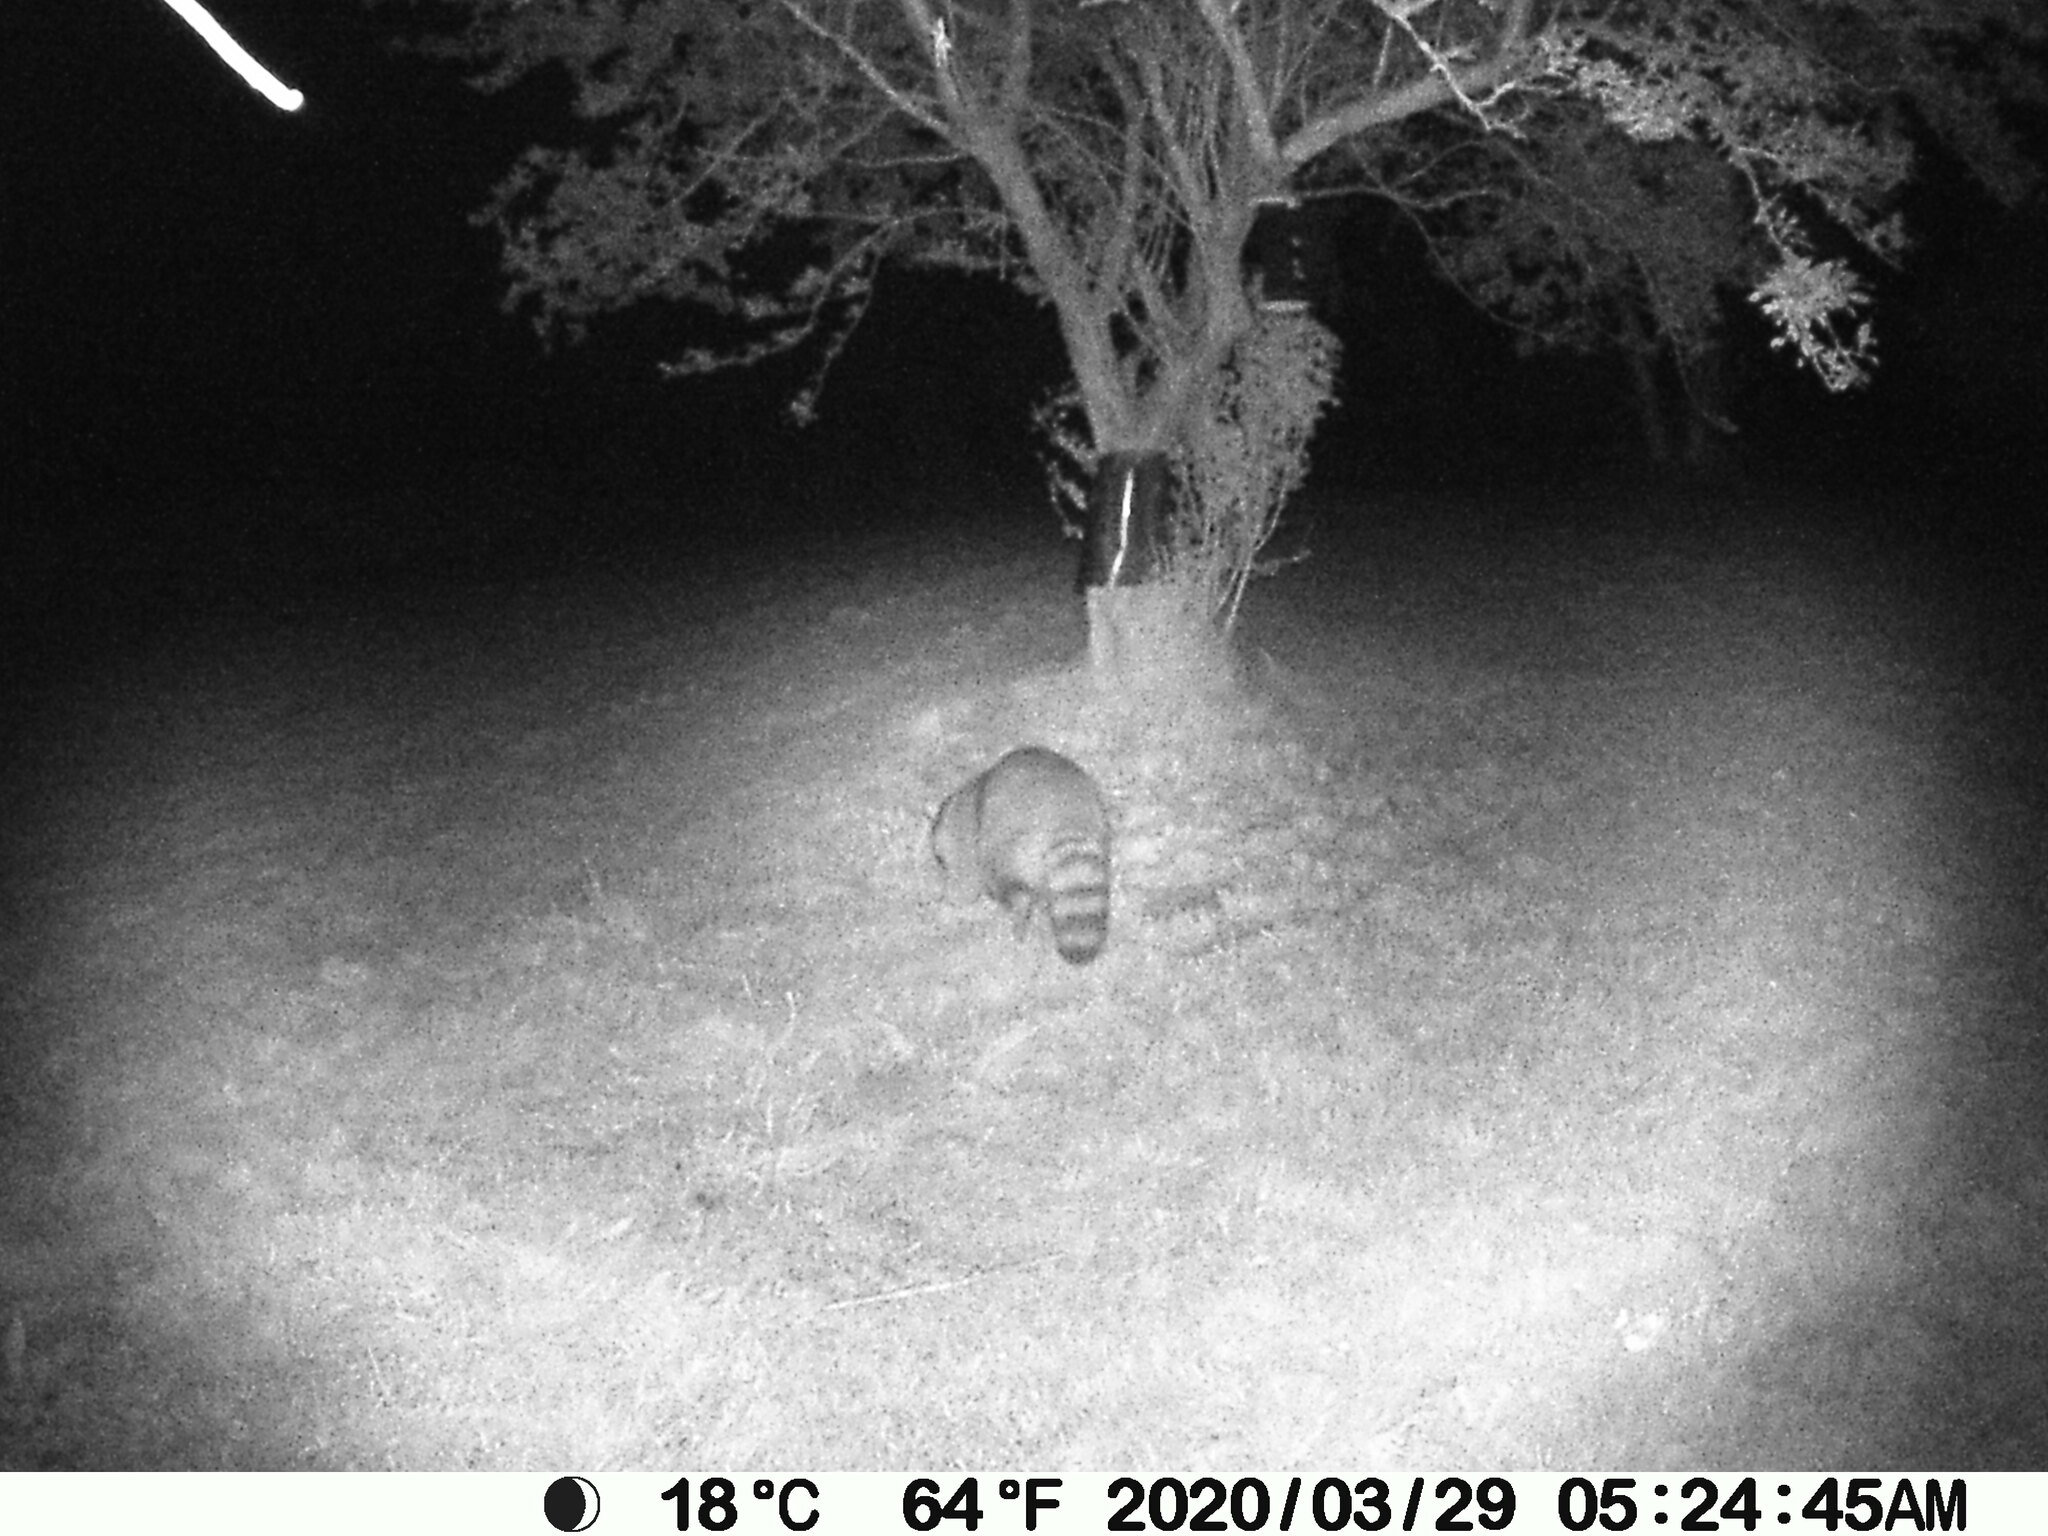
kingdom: Animalia
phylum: Chordata
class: Mammalia
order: Carnivora
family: Procyonidae
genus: Procyon
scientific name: Procyon lotor
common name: Raccoon
